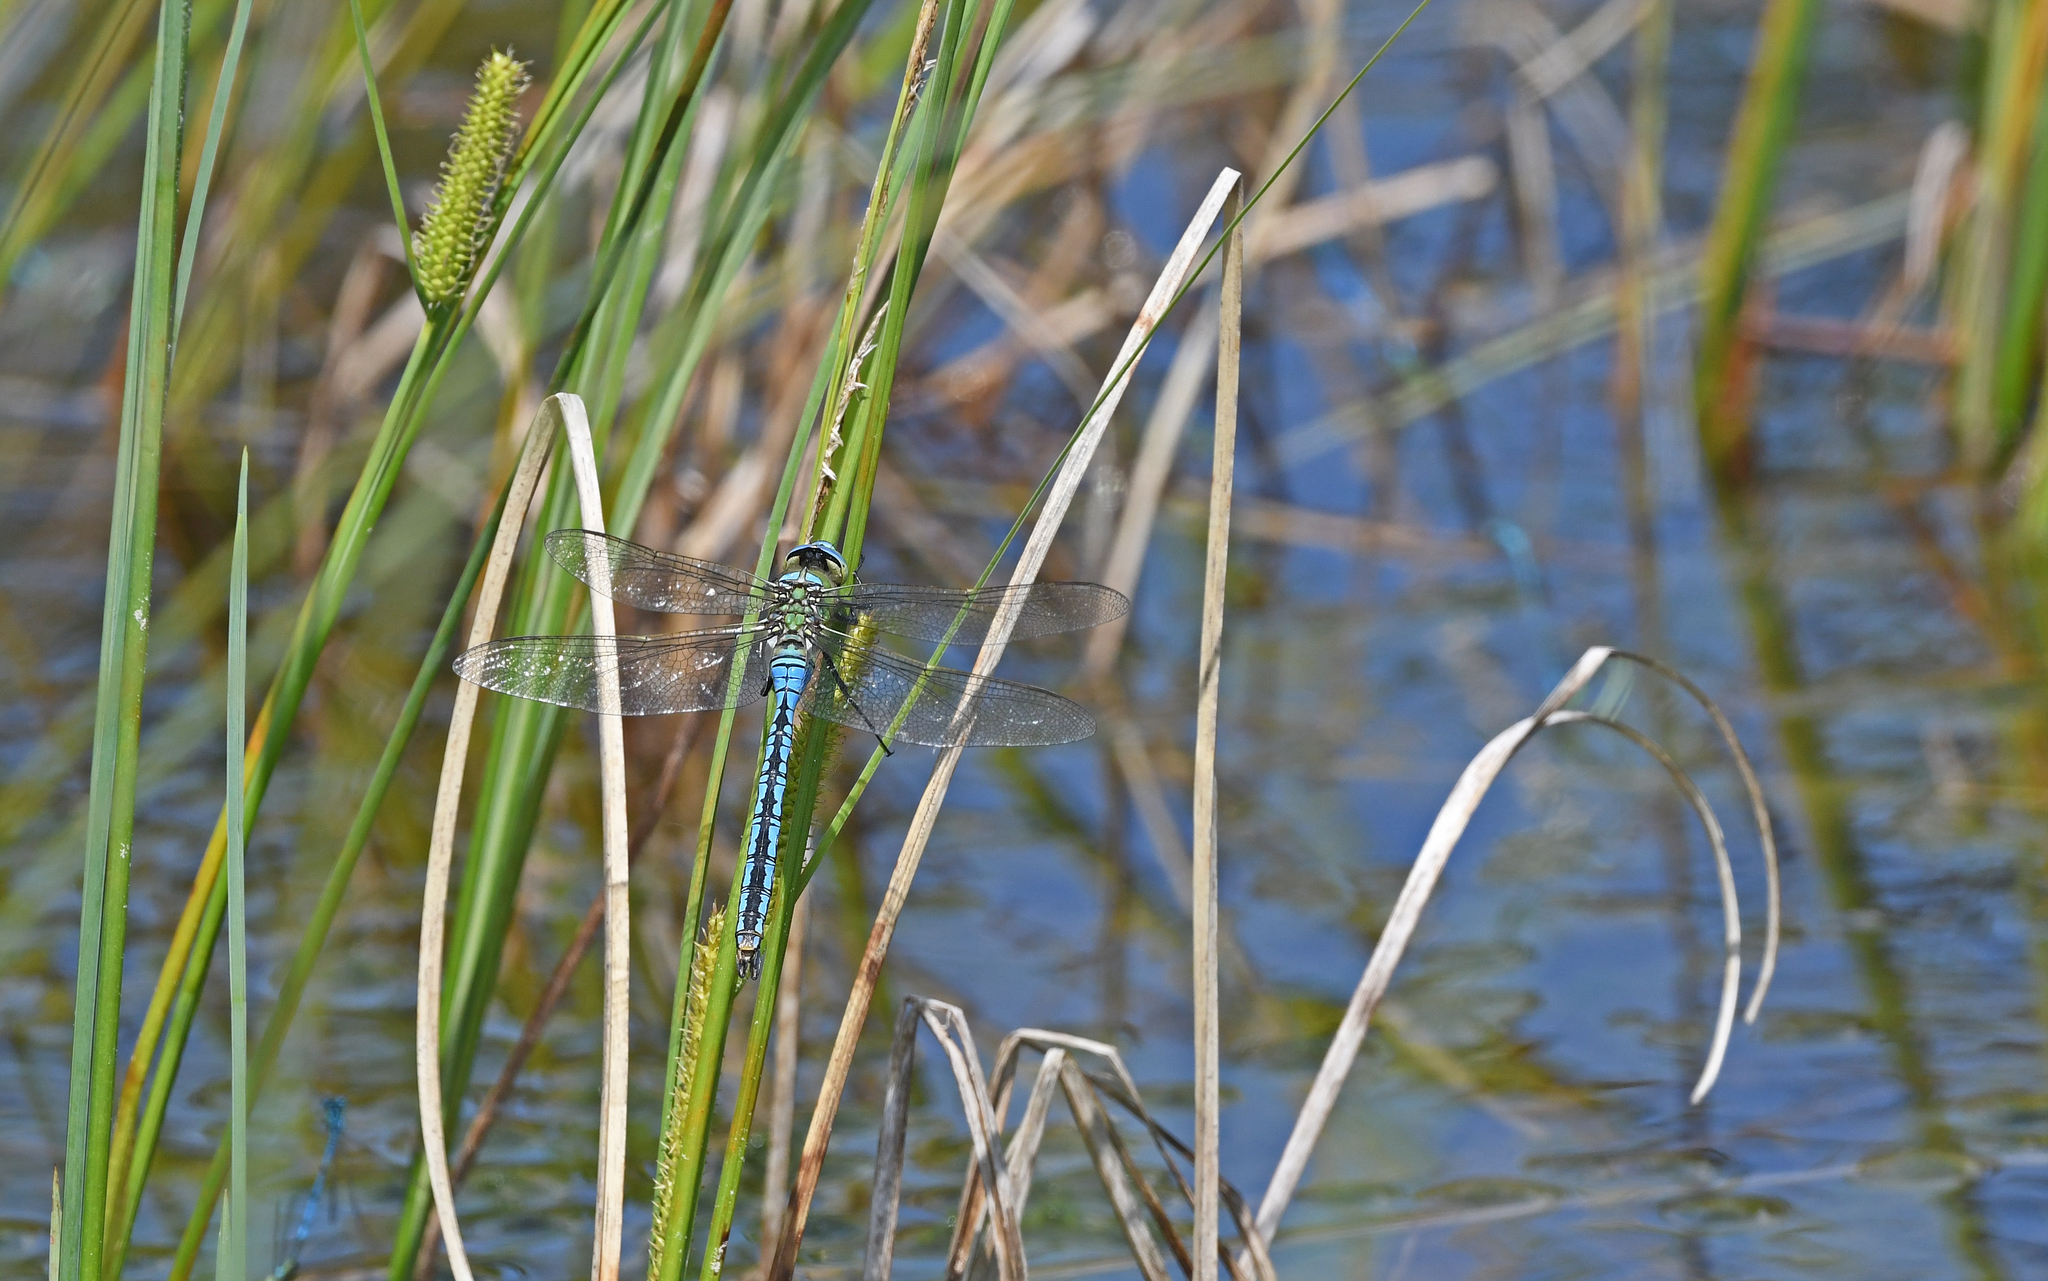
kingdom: Animalia
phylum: Arthropoda
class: Insecta
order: Odonata
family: Aeshnidae
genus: Anax
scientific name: Anax imperator
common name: Emperor dragonfly
